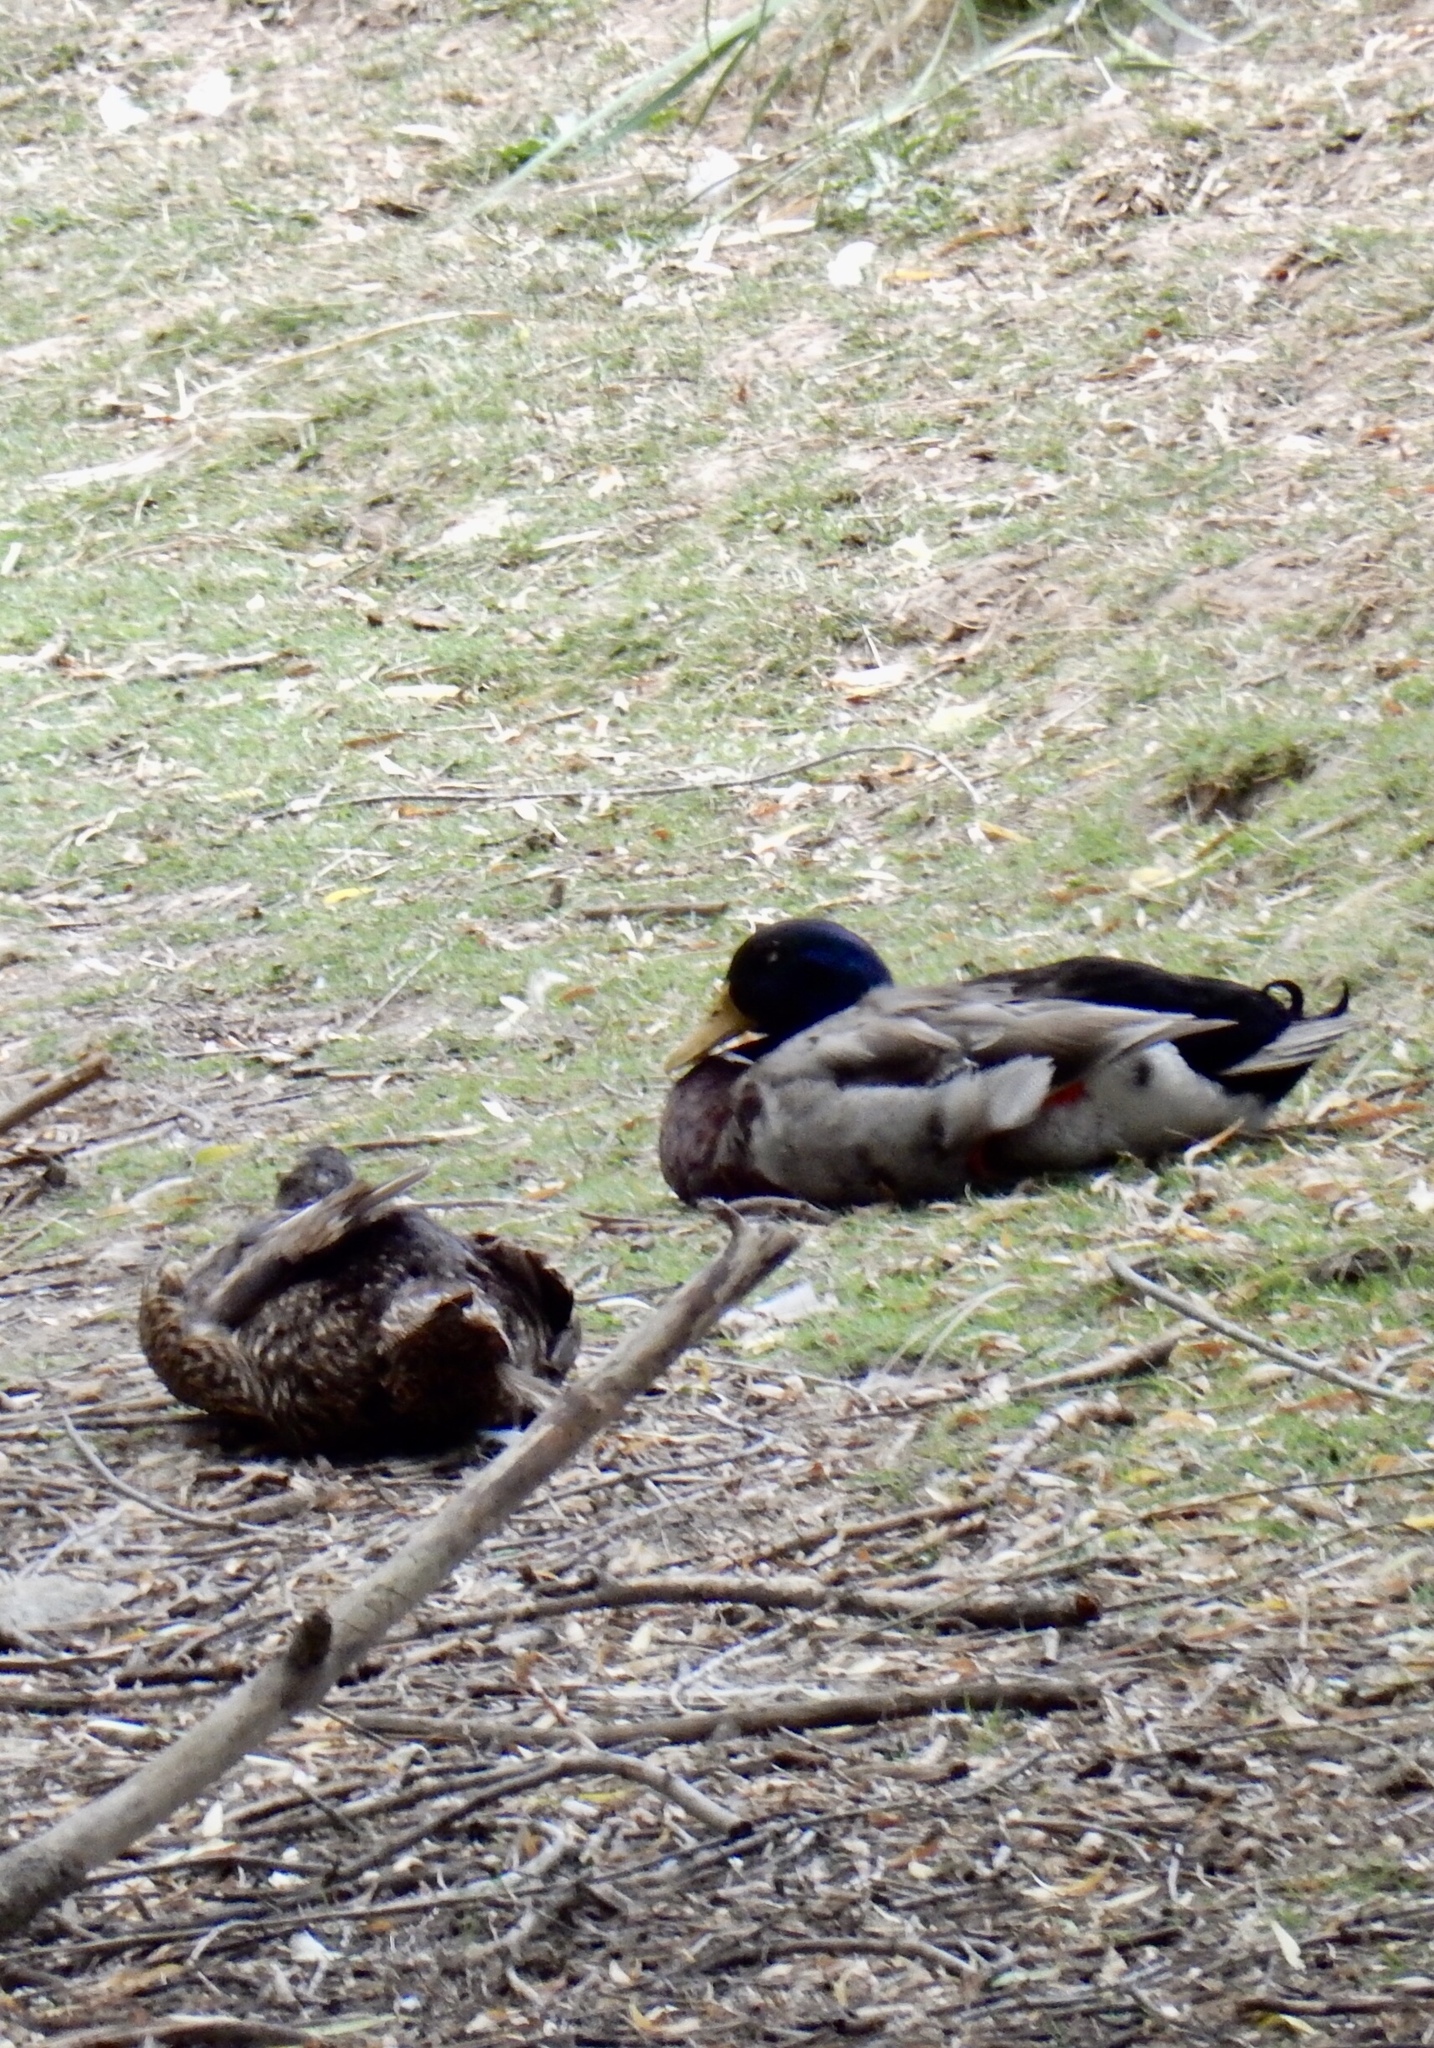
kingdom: Animalia
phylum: Chordata
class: Aves
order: Anseriformes
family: Anatidae
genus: Anas
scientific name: Anas platyrhynchos
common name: Mallard
